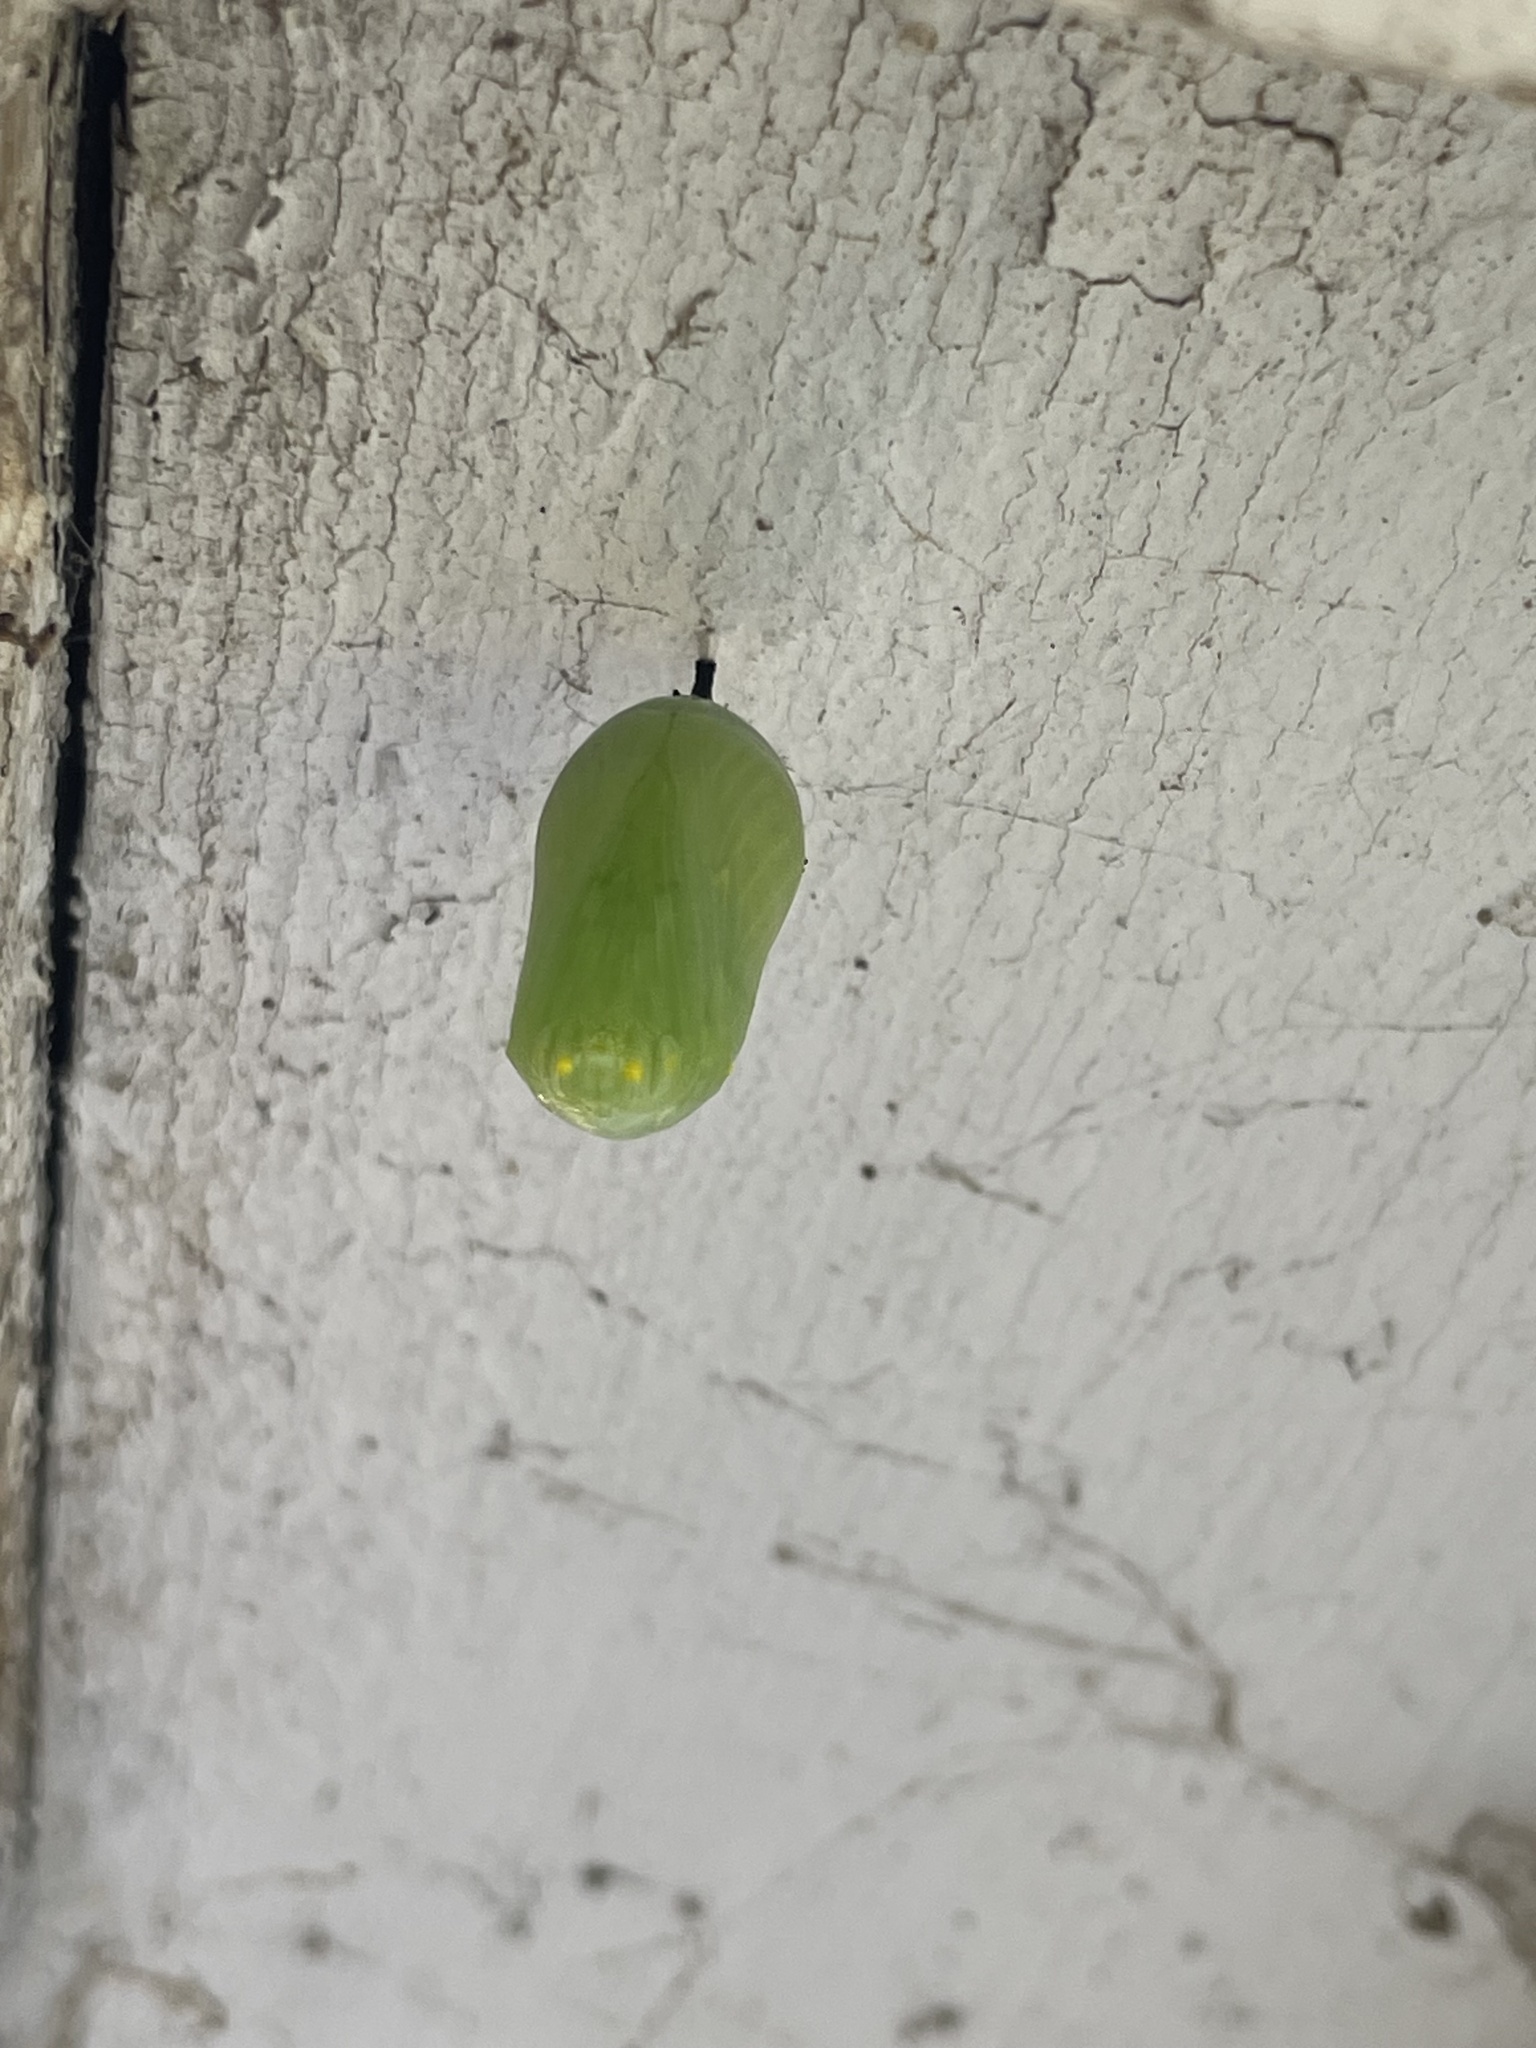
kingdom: Animalia
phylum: Arthropoda
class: Insecta
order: Lepidoptera
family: Nymphalidae
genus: Danaus
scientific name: Danaus plexippus
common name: Monarch
